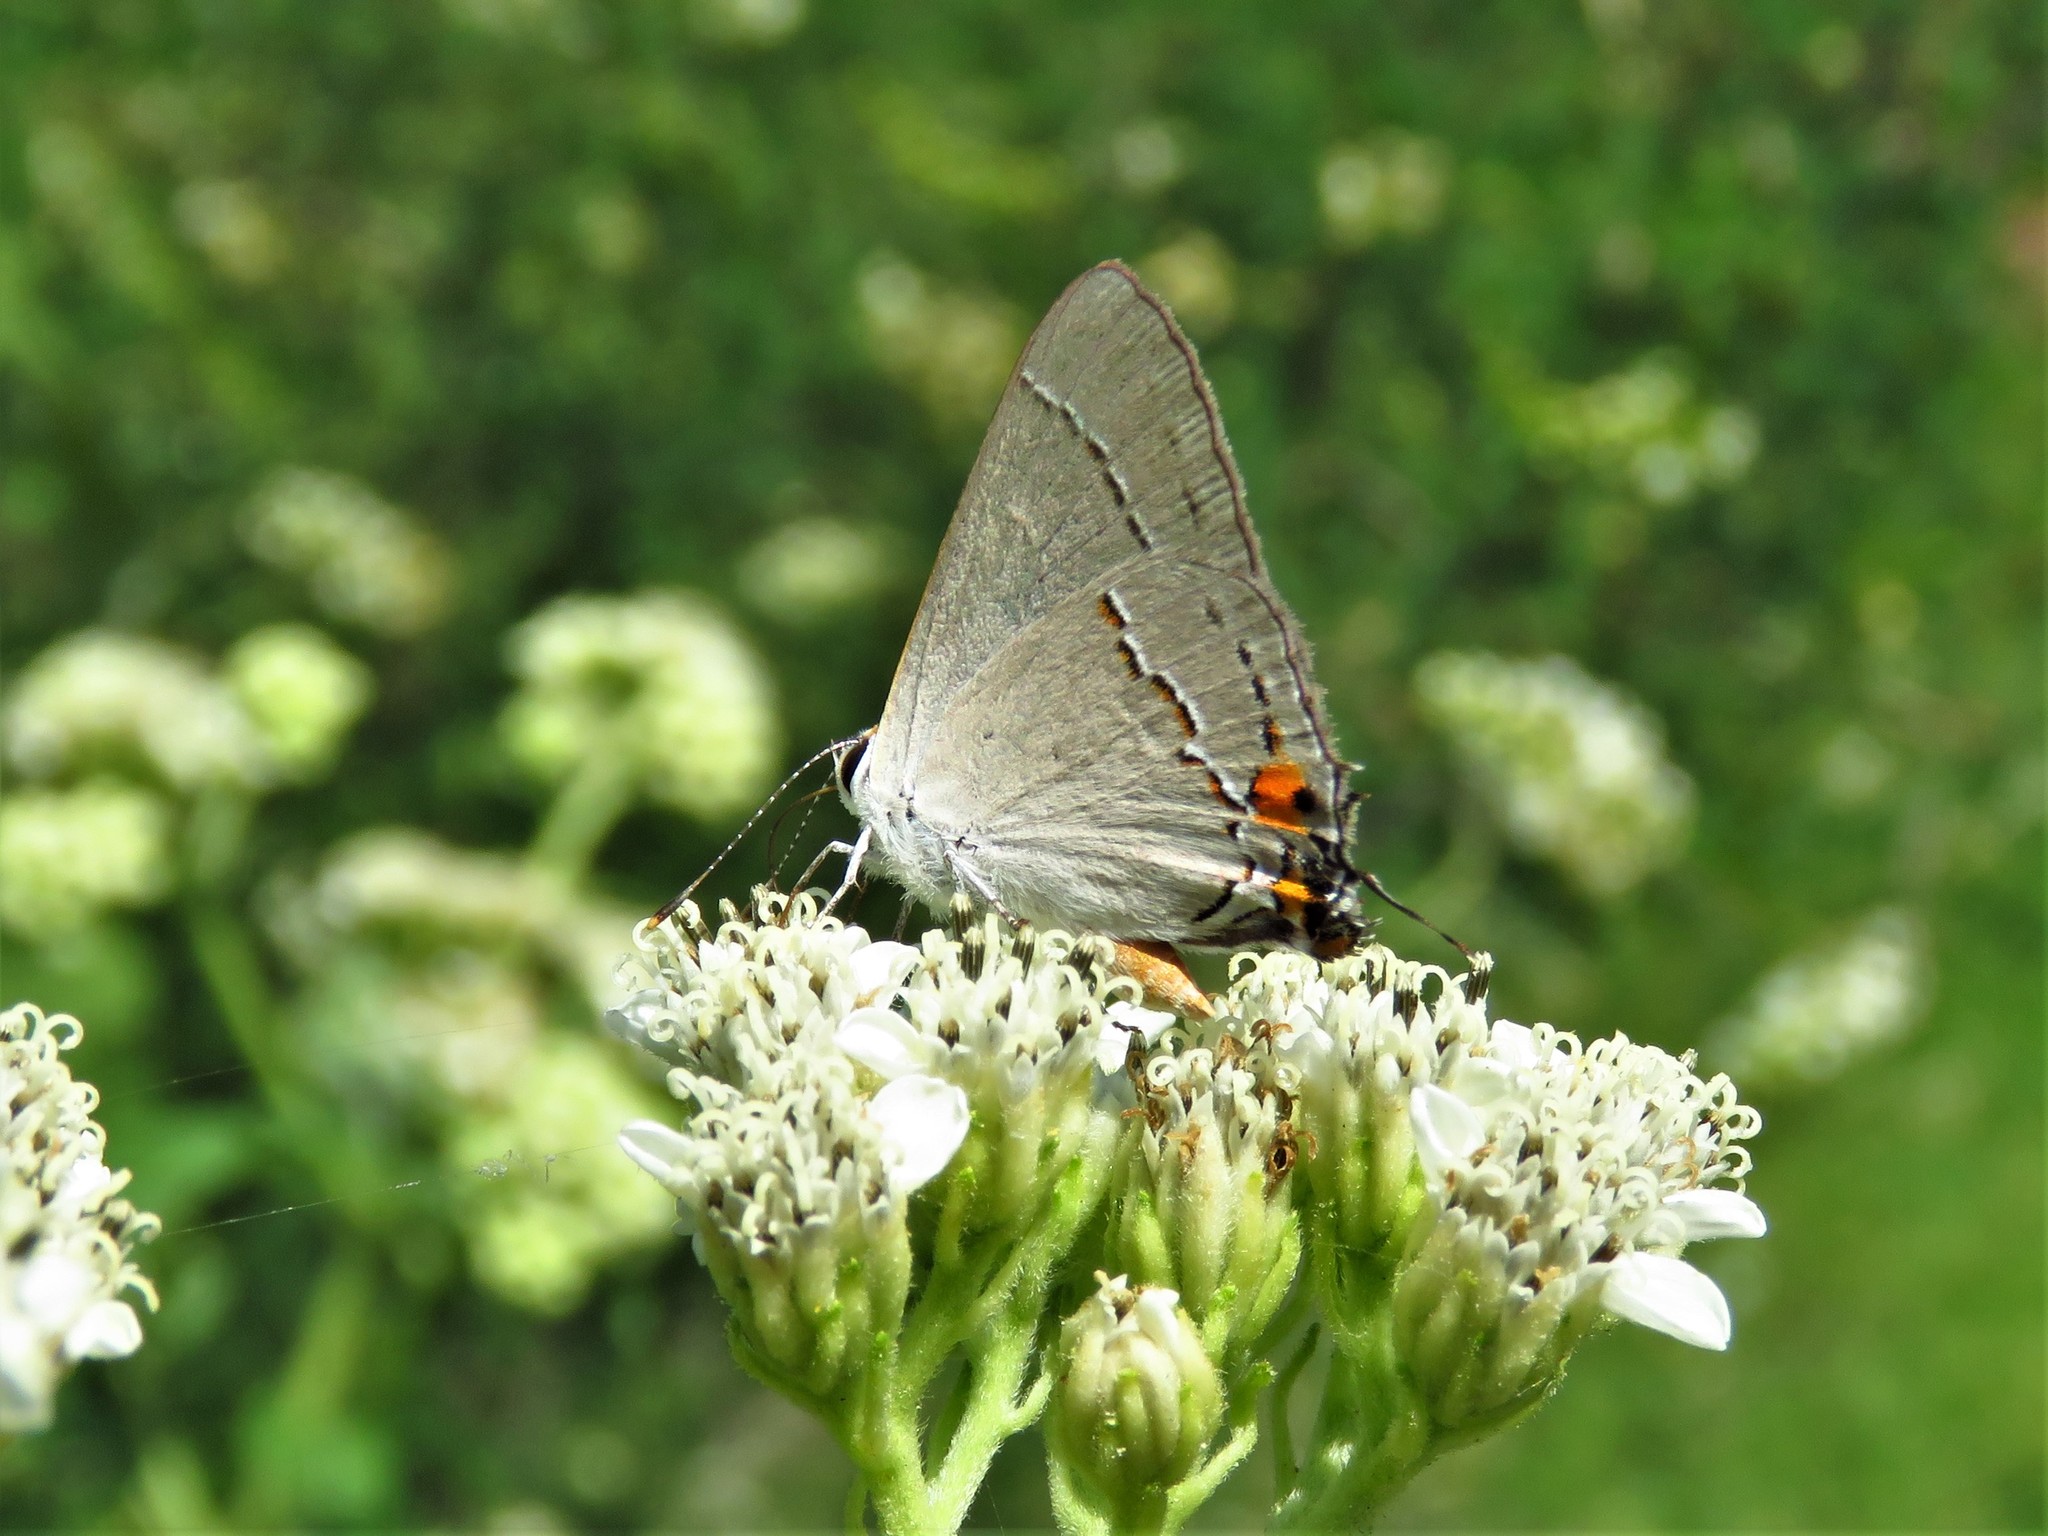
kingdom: Animalia
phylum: Arthropoda
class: Insecta
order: Lepidoptera
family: Lycaenidae
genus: Strymon
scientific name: Strymon melinus
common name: Gray hairstreak
